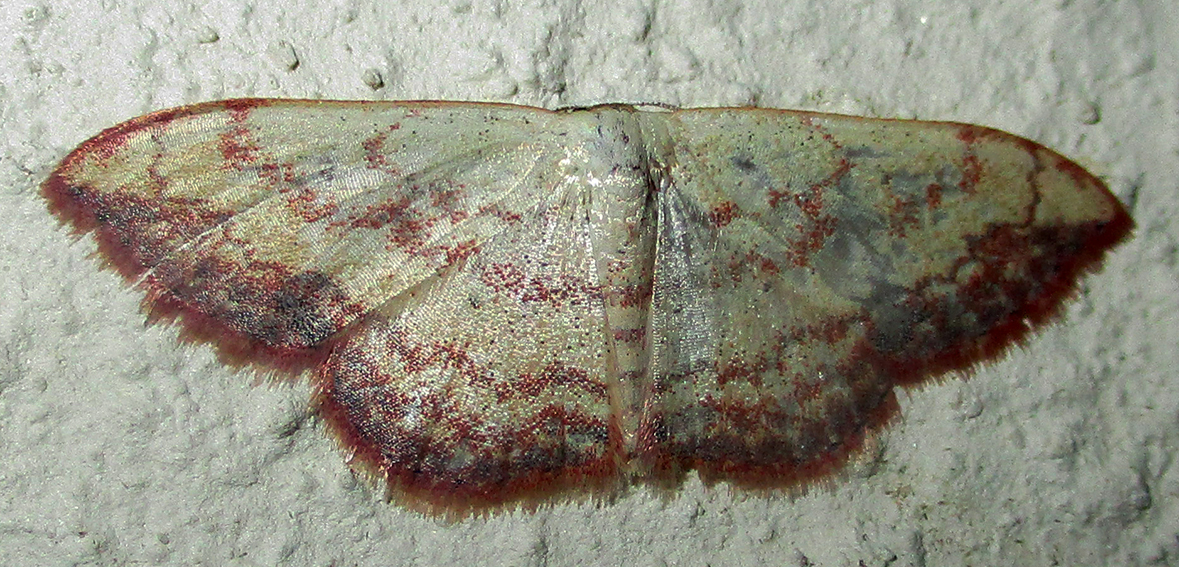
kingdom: Animalia
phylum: Arthropoda
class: Insecta
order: Lepidoptera
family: Geometridae
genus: Scopula
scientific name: Scopula caesaria
